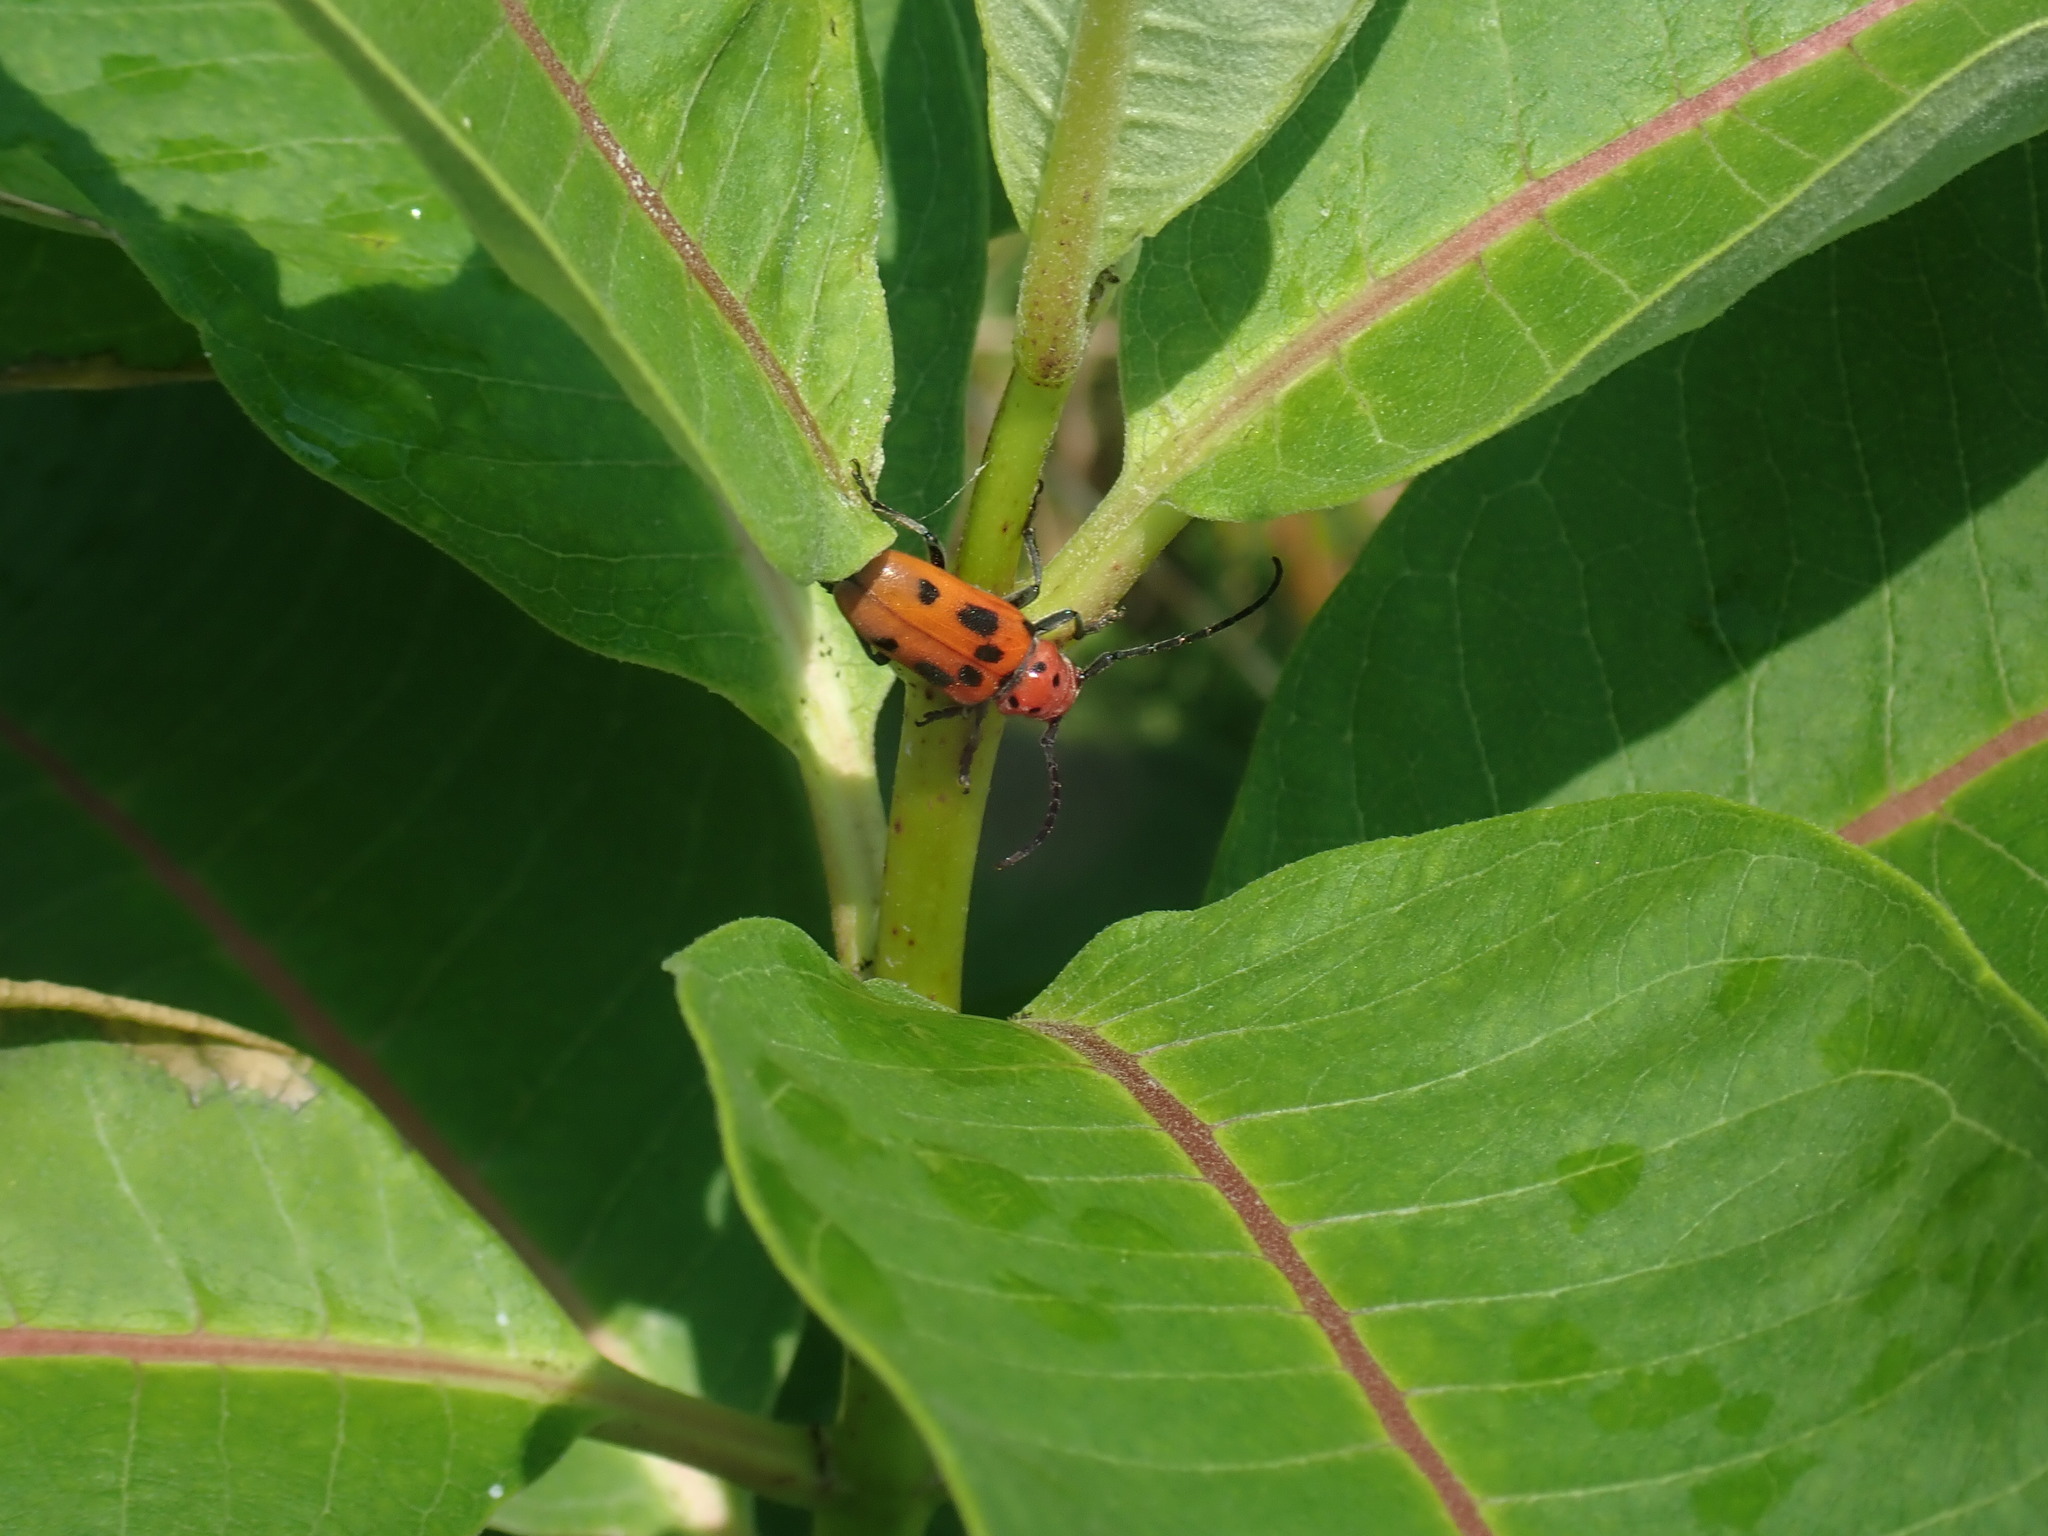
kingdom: Animalia
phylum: Arthropoda
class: Insecta
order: Coleoptera
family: Cerambycidae
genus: Tetraopes
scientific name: Tetraopes tetrophthalmus
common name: Red milkweed beetle
